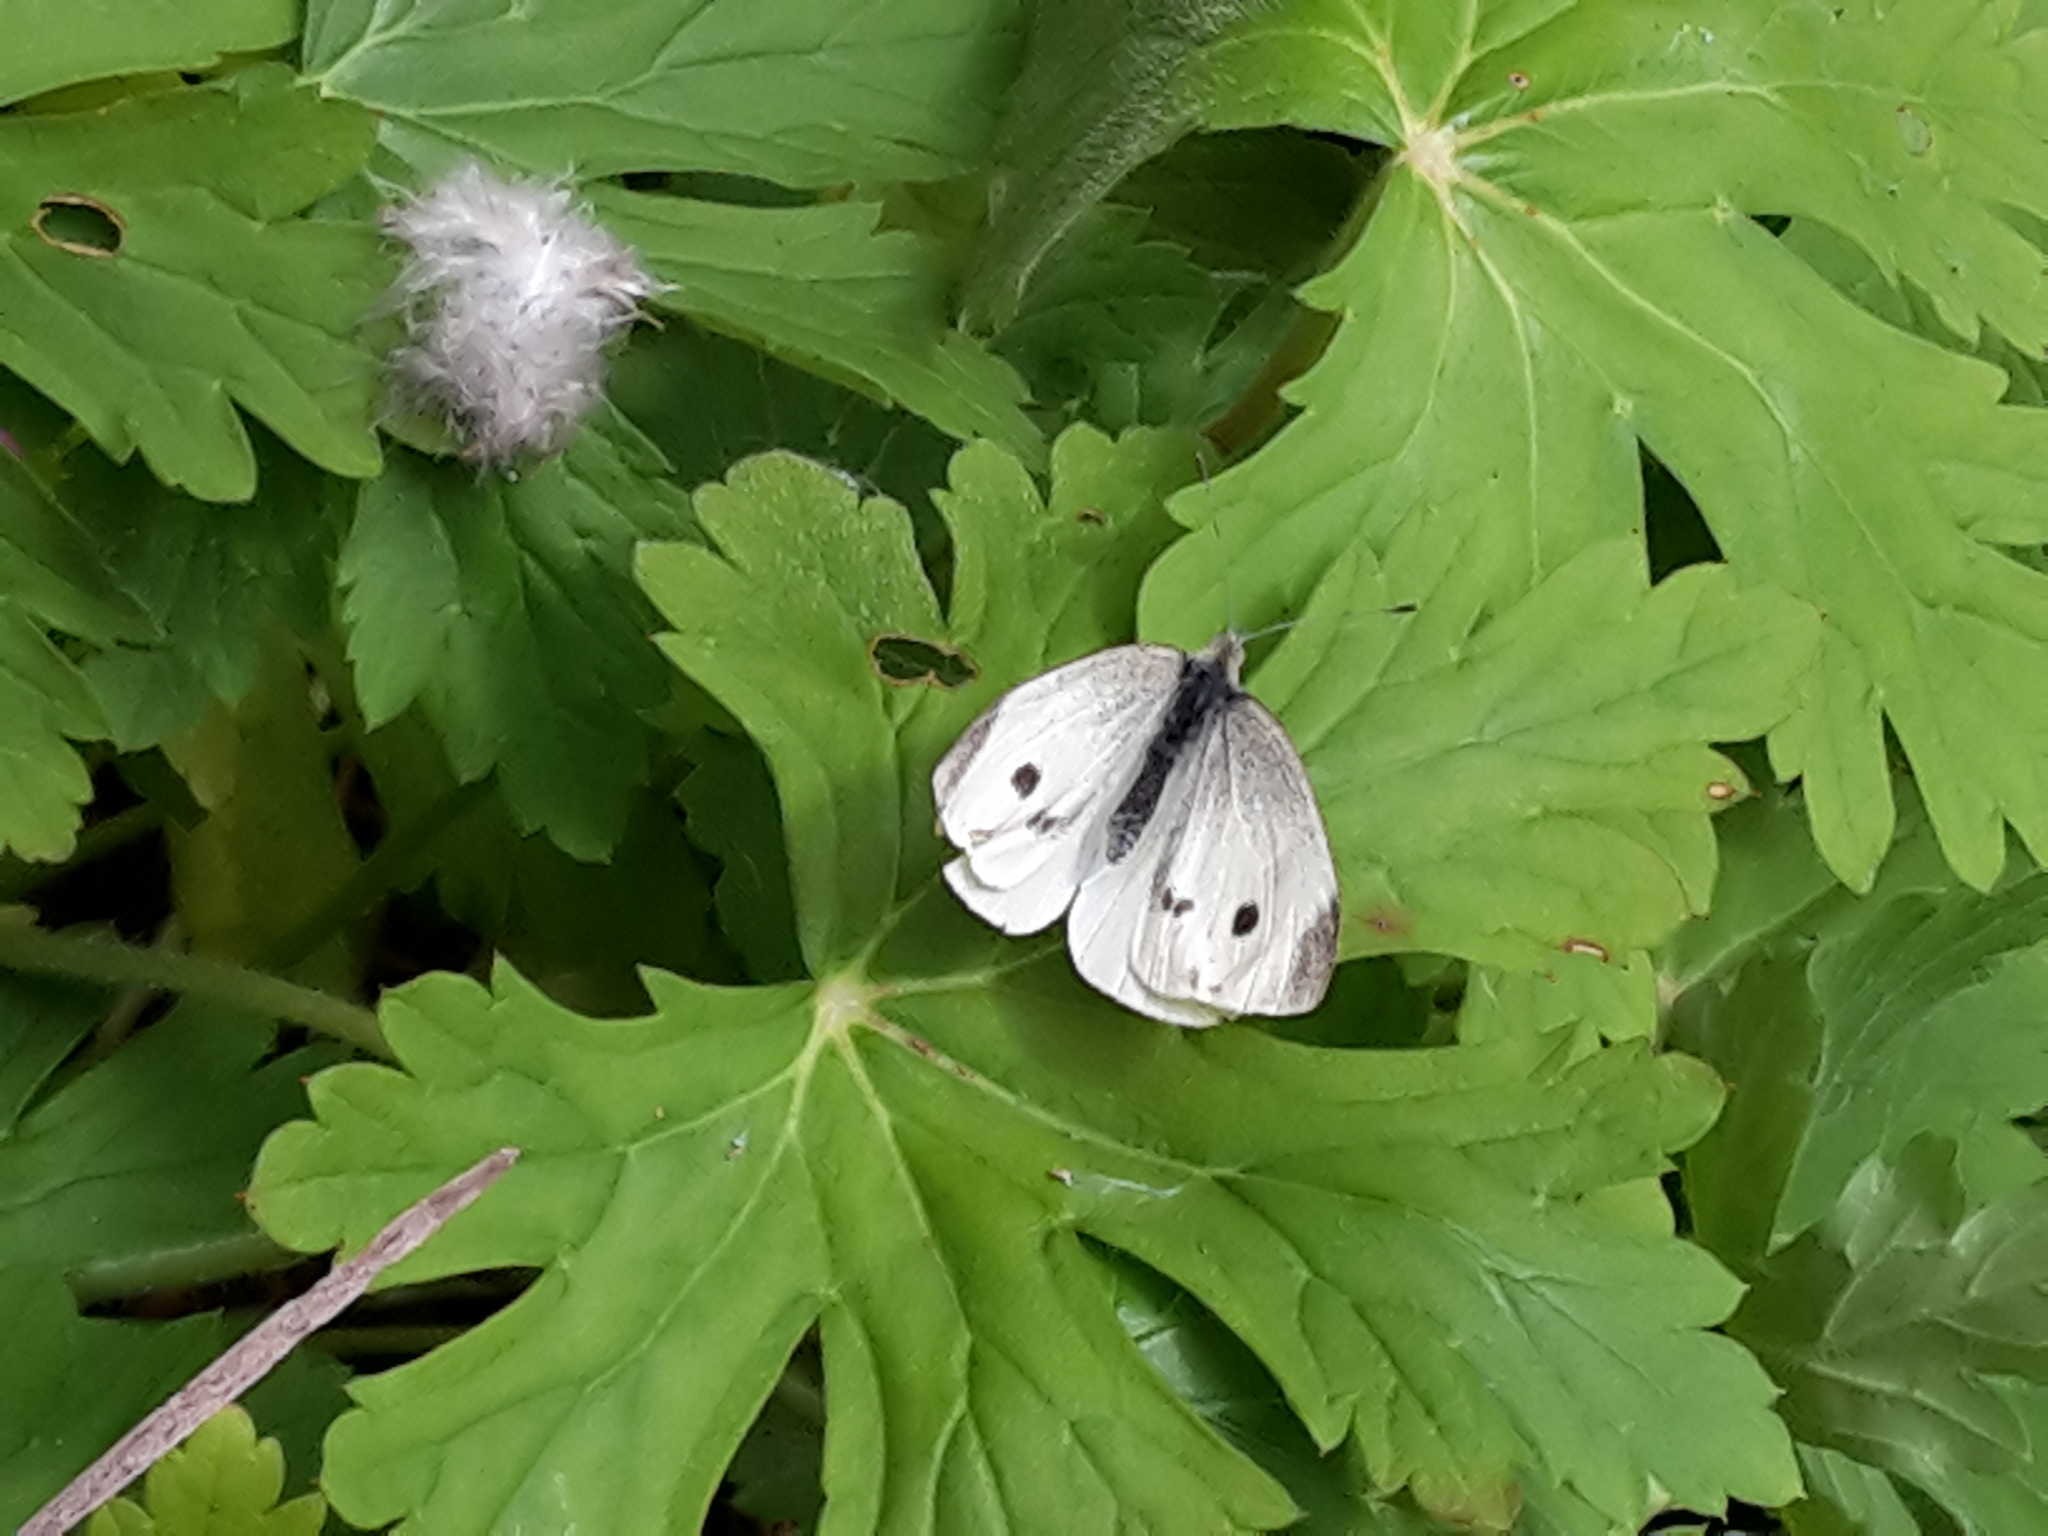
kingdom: Animalia
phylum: Arthropoda
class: Insecta
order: Lepidoptera
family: Pieridae
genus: Pieris
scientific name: Pieris rapae
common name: Small white
